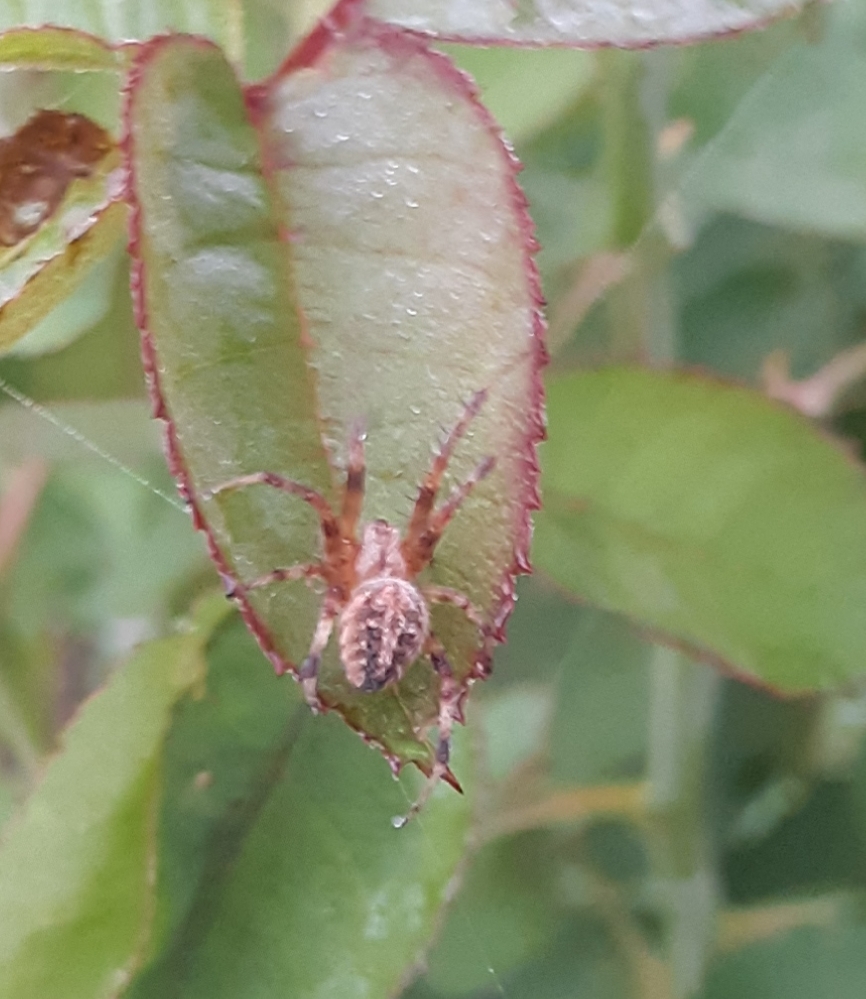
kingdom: Animalia
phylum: Arthropoda
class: Arachnida
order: Araneae
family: Araneidae
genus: Neoscona
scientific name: Neoscona arabesca
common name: Orb weavers
